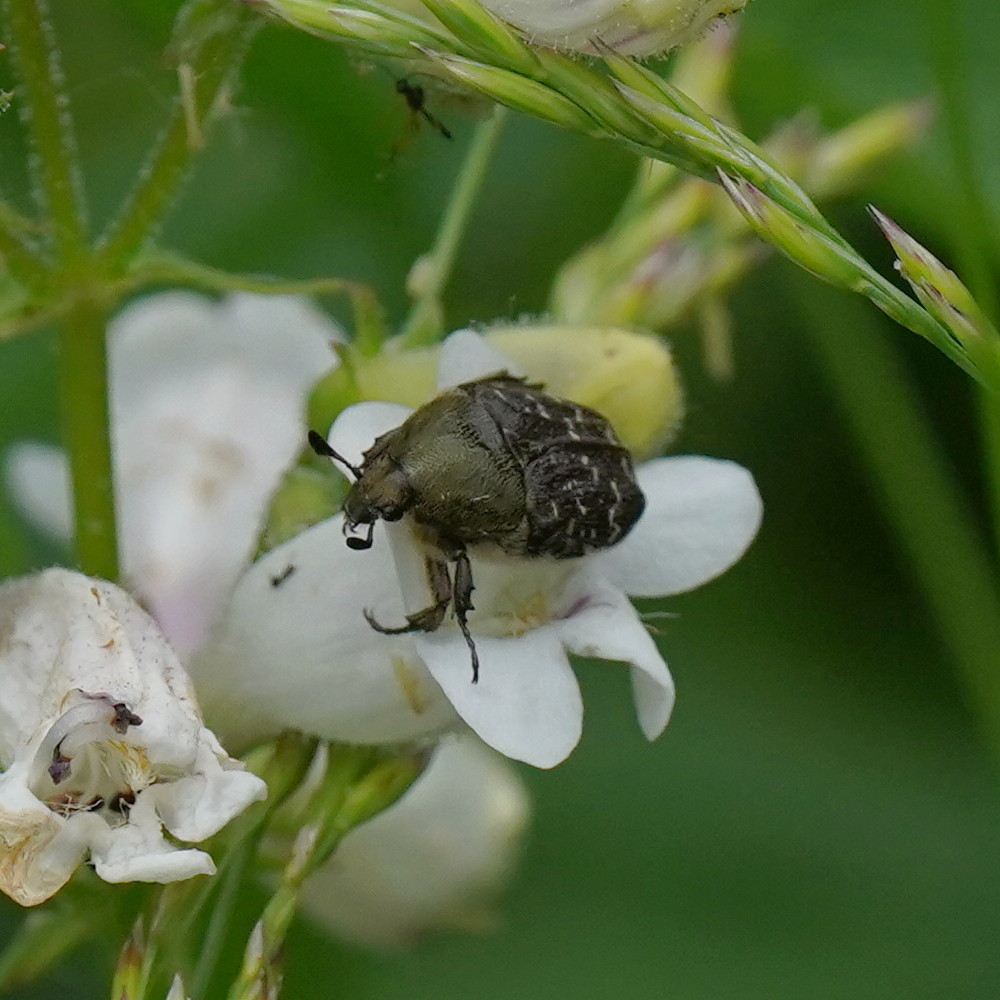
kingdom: Animalia
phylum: Arthropoda
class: Insecta
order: Coleoptera
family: Scarabaeidae
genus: Euphoria
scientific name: Euphoria sepulcralis
